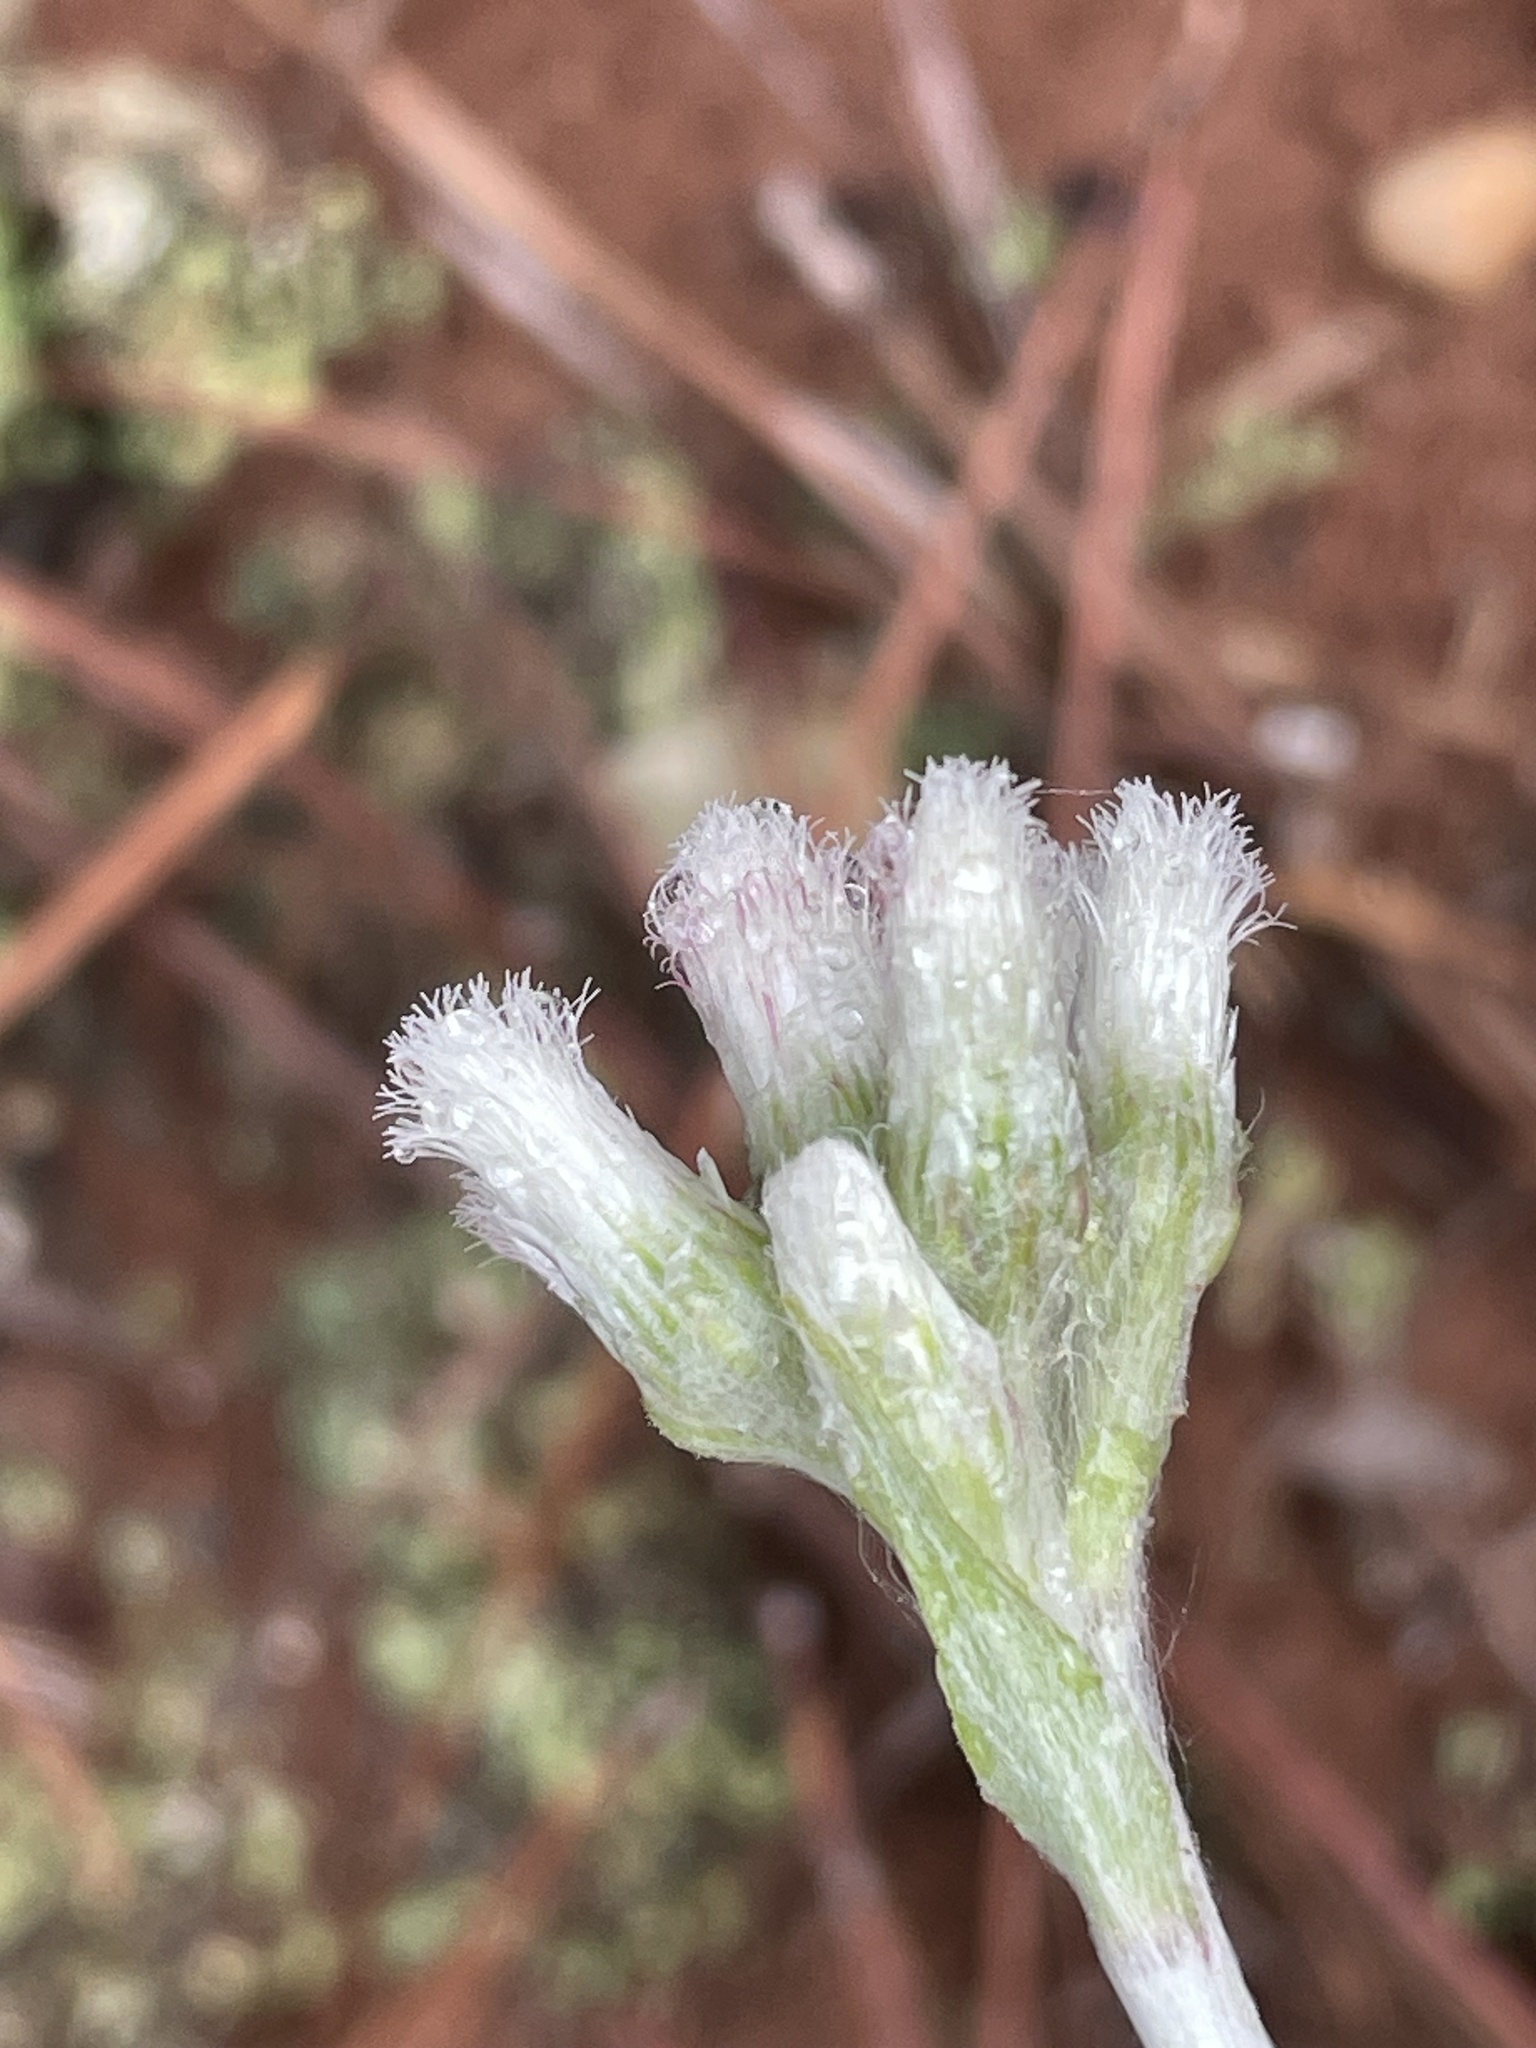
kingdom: Plantae
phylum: Tracheophyta
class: Magnoliopsida
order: Asterales
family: Asteraceae
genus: Antennaria
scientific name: Antennaria parlinii
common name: Parlin's pussytoes
